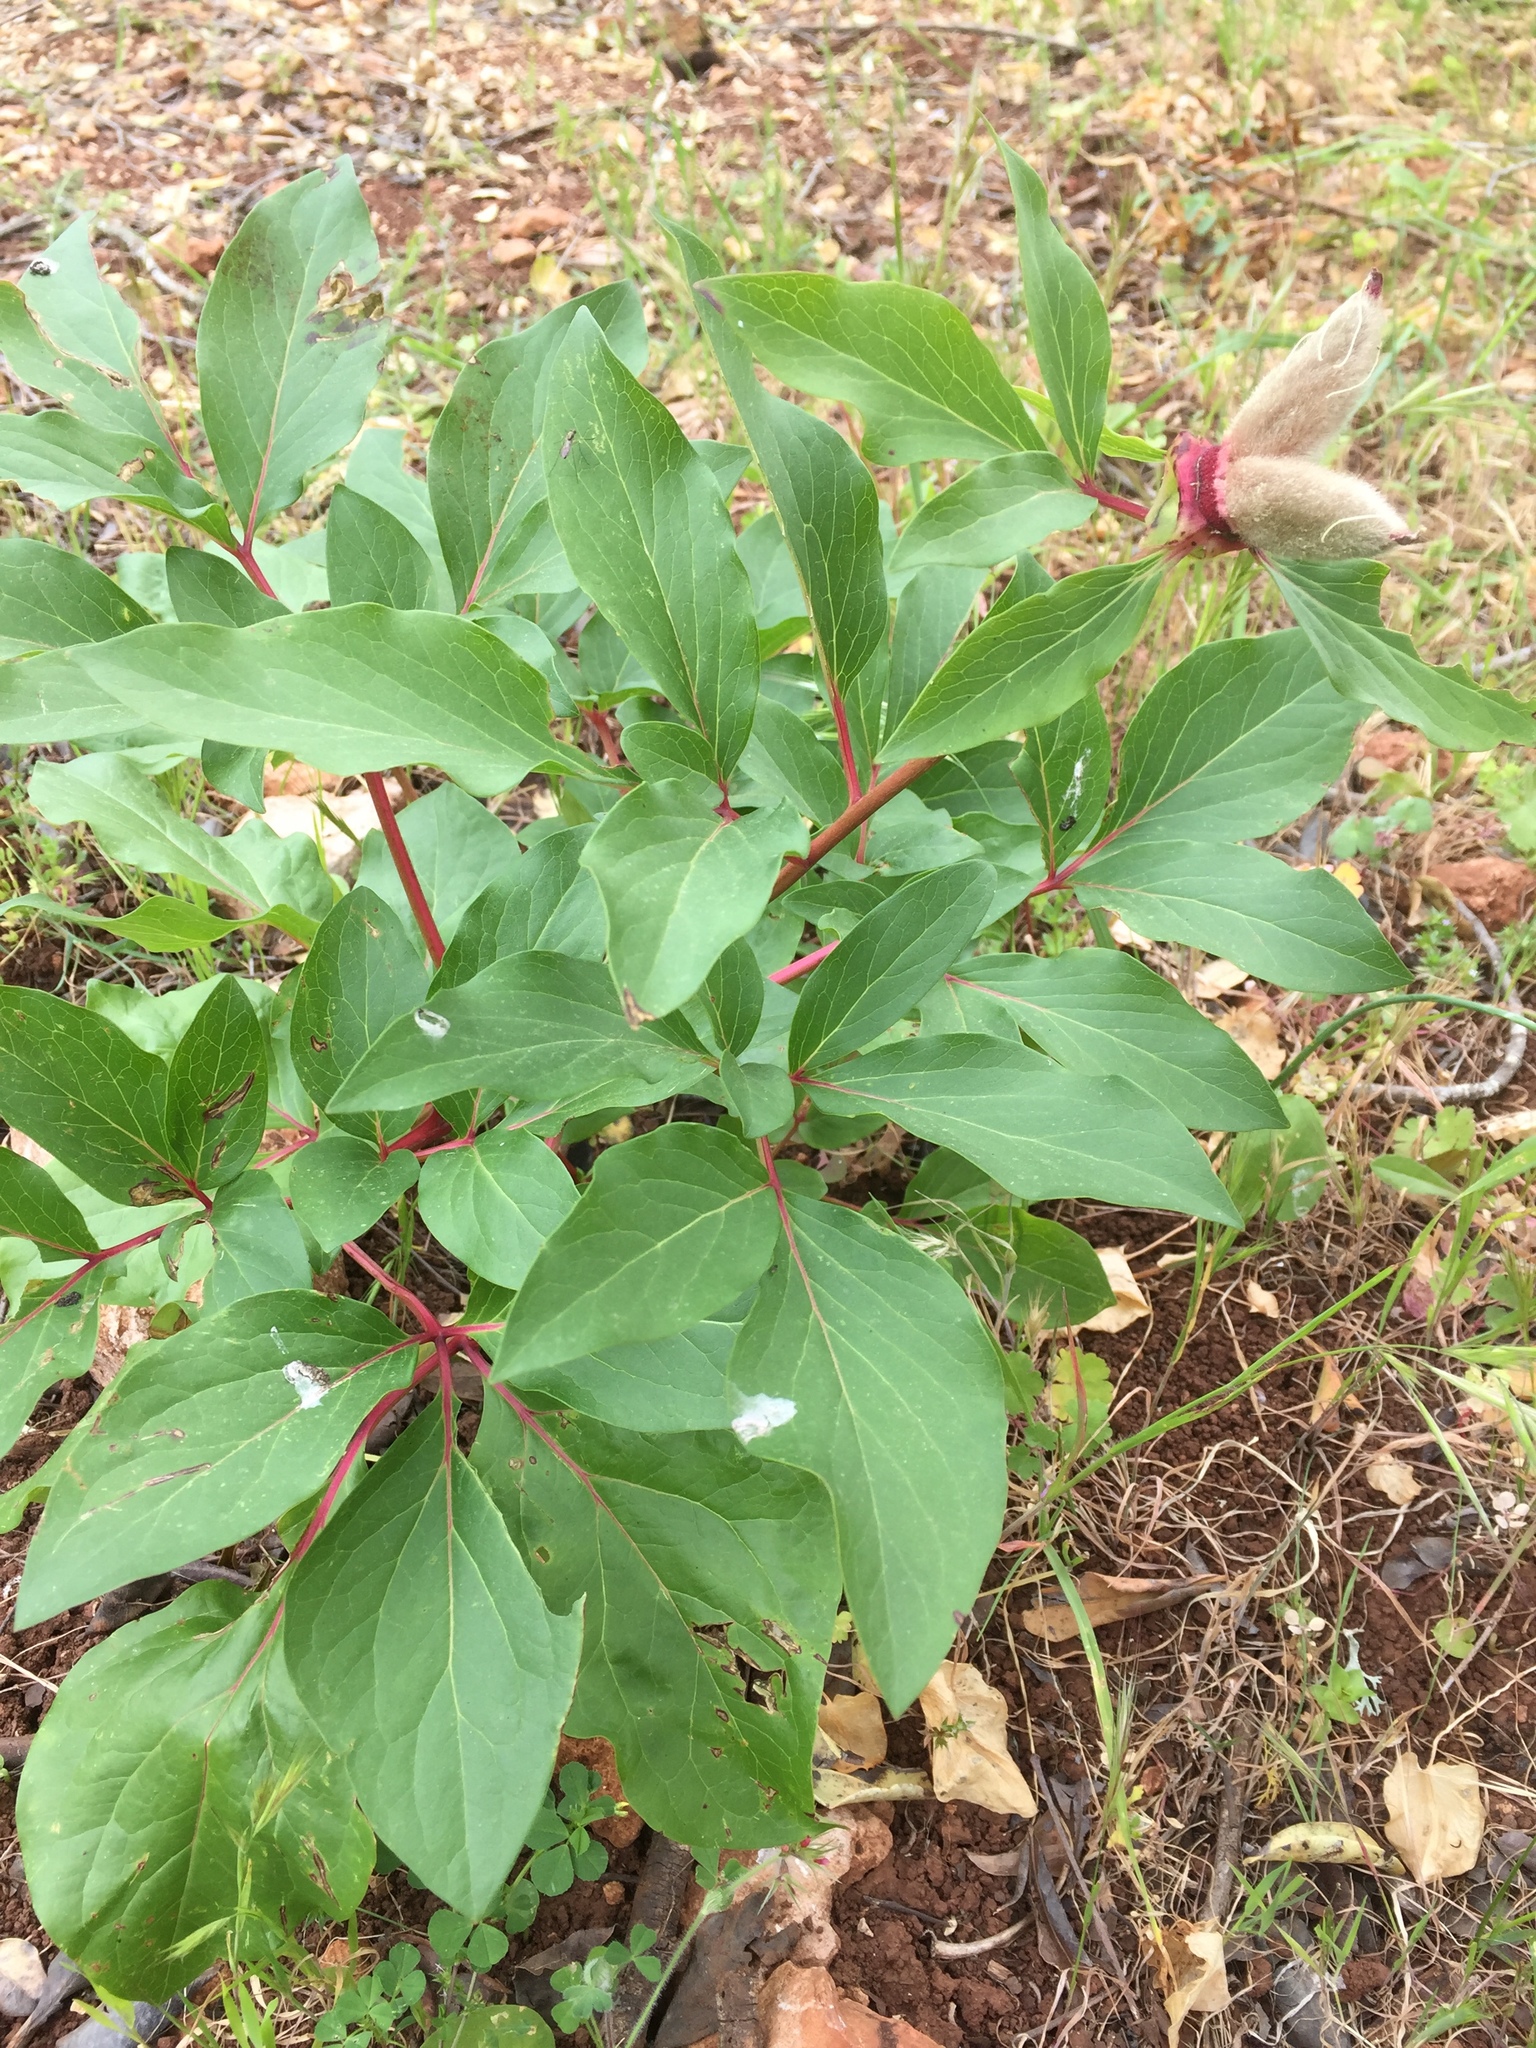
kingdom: Plantae
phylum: Tracheophyta
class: Magnoliopsida
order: Saxifragales
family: Paeoniaceae
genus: Paeonia
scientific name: Paeonia broteroi
